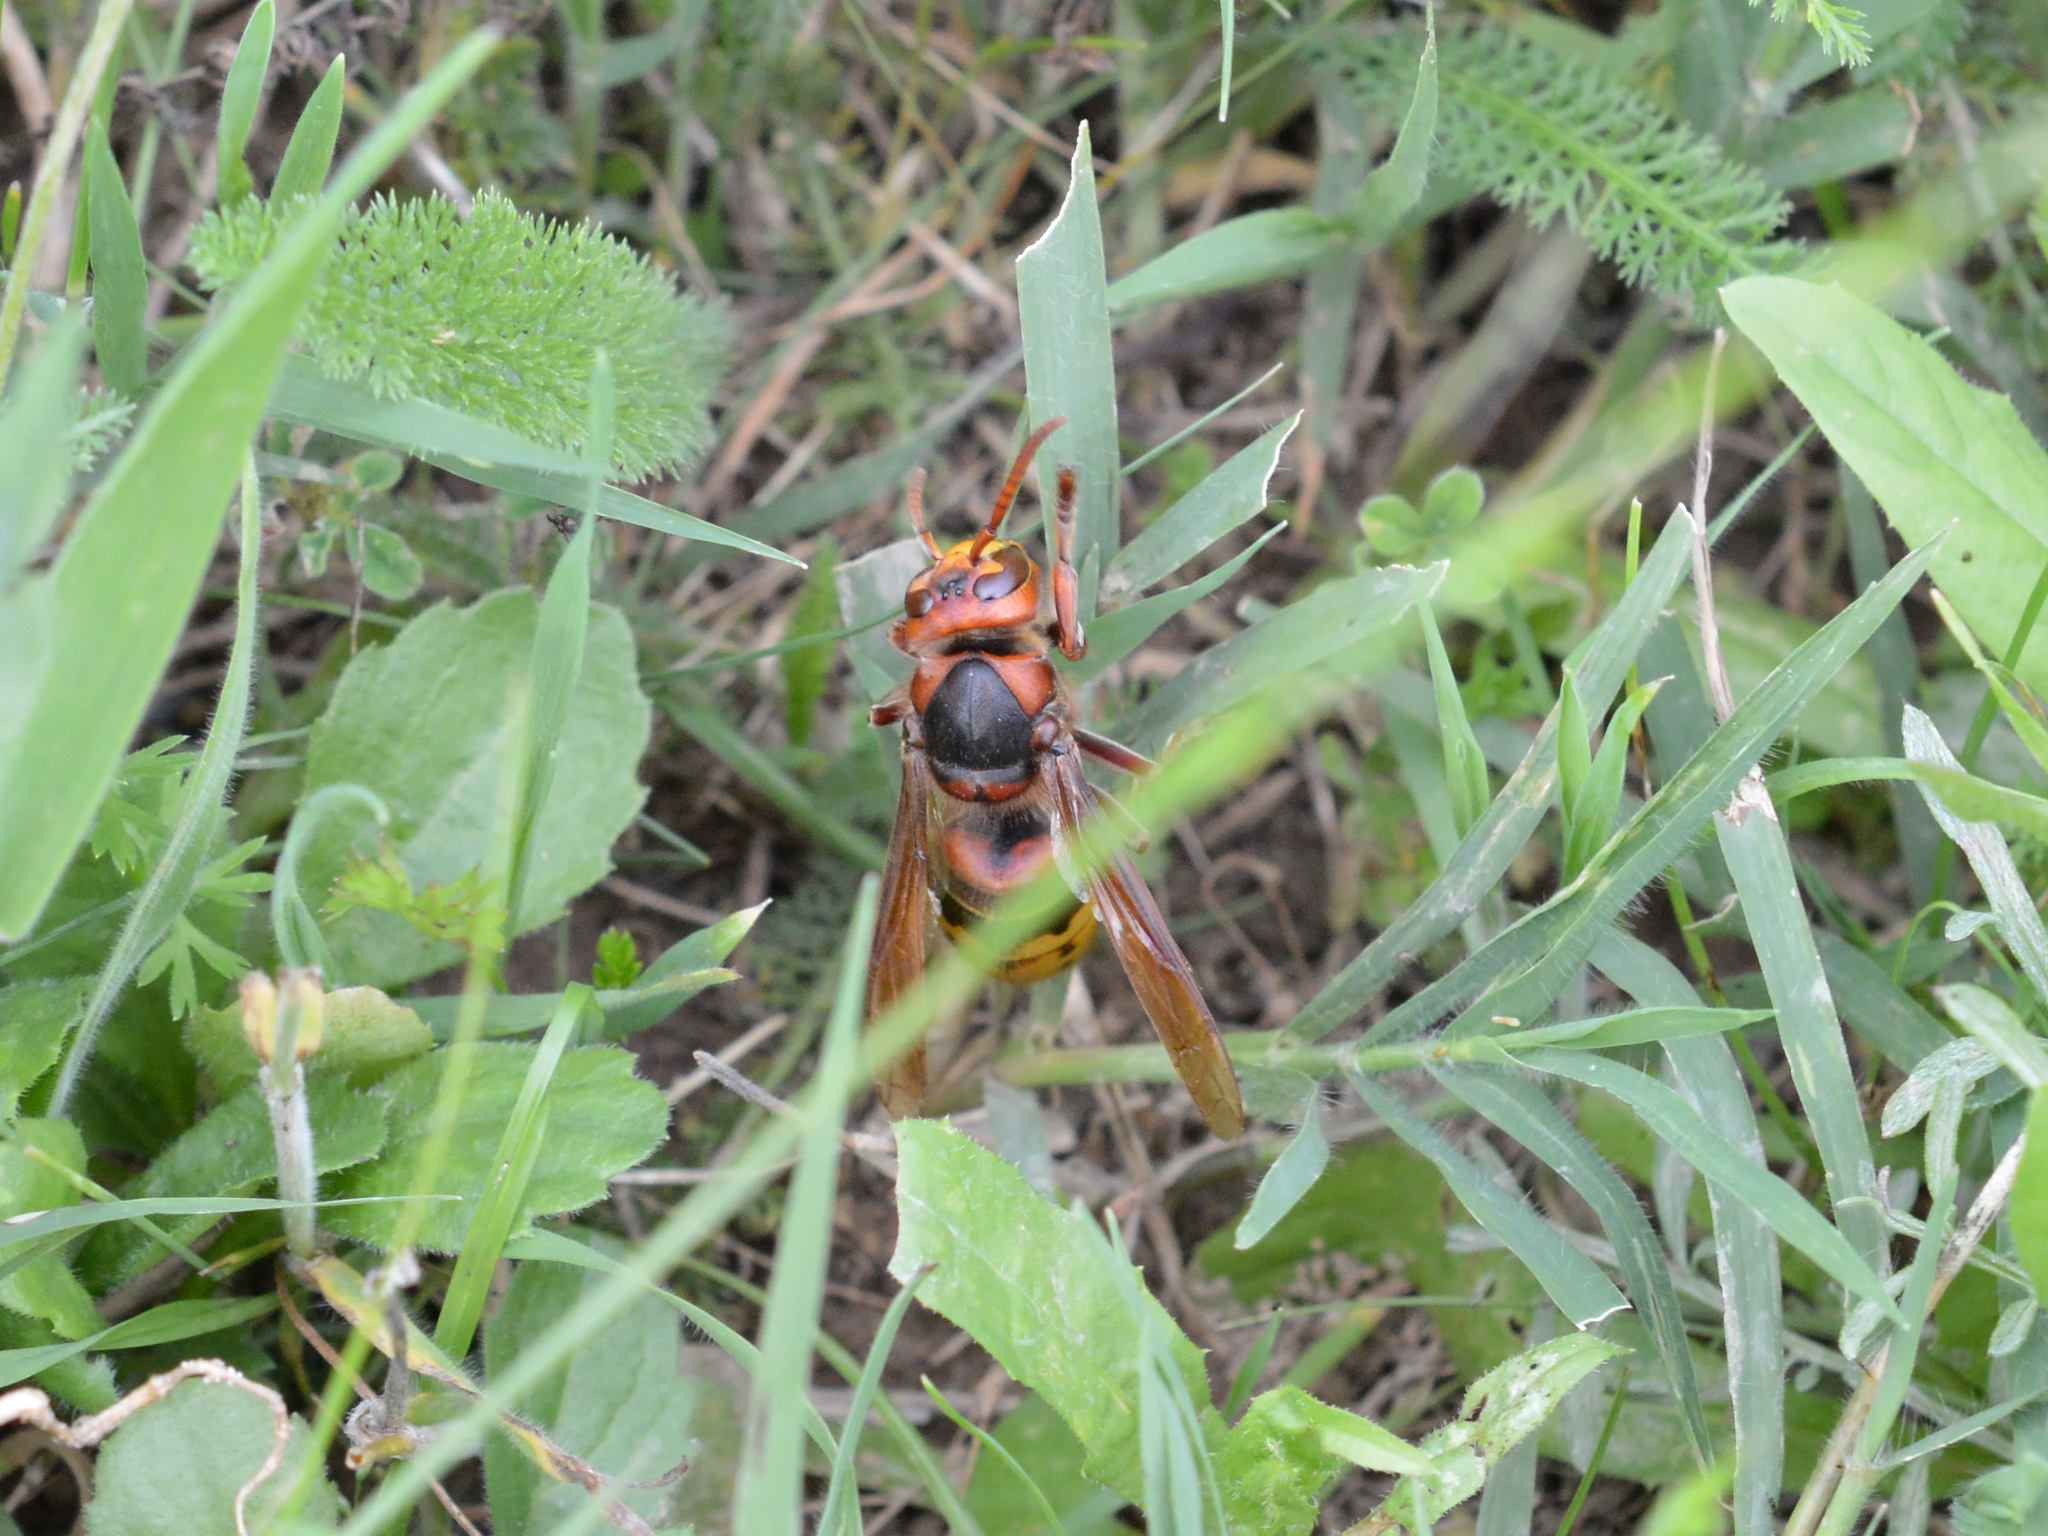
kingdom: Animalia
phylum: Arthropoda
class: Insecta
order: Hymenoptera
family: Vespidae
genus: Vespa
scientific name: Vespa crabro
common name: Hornet
